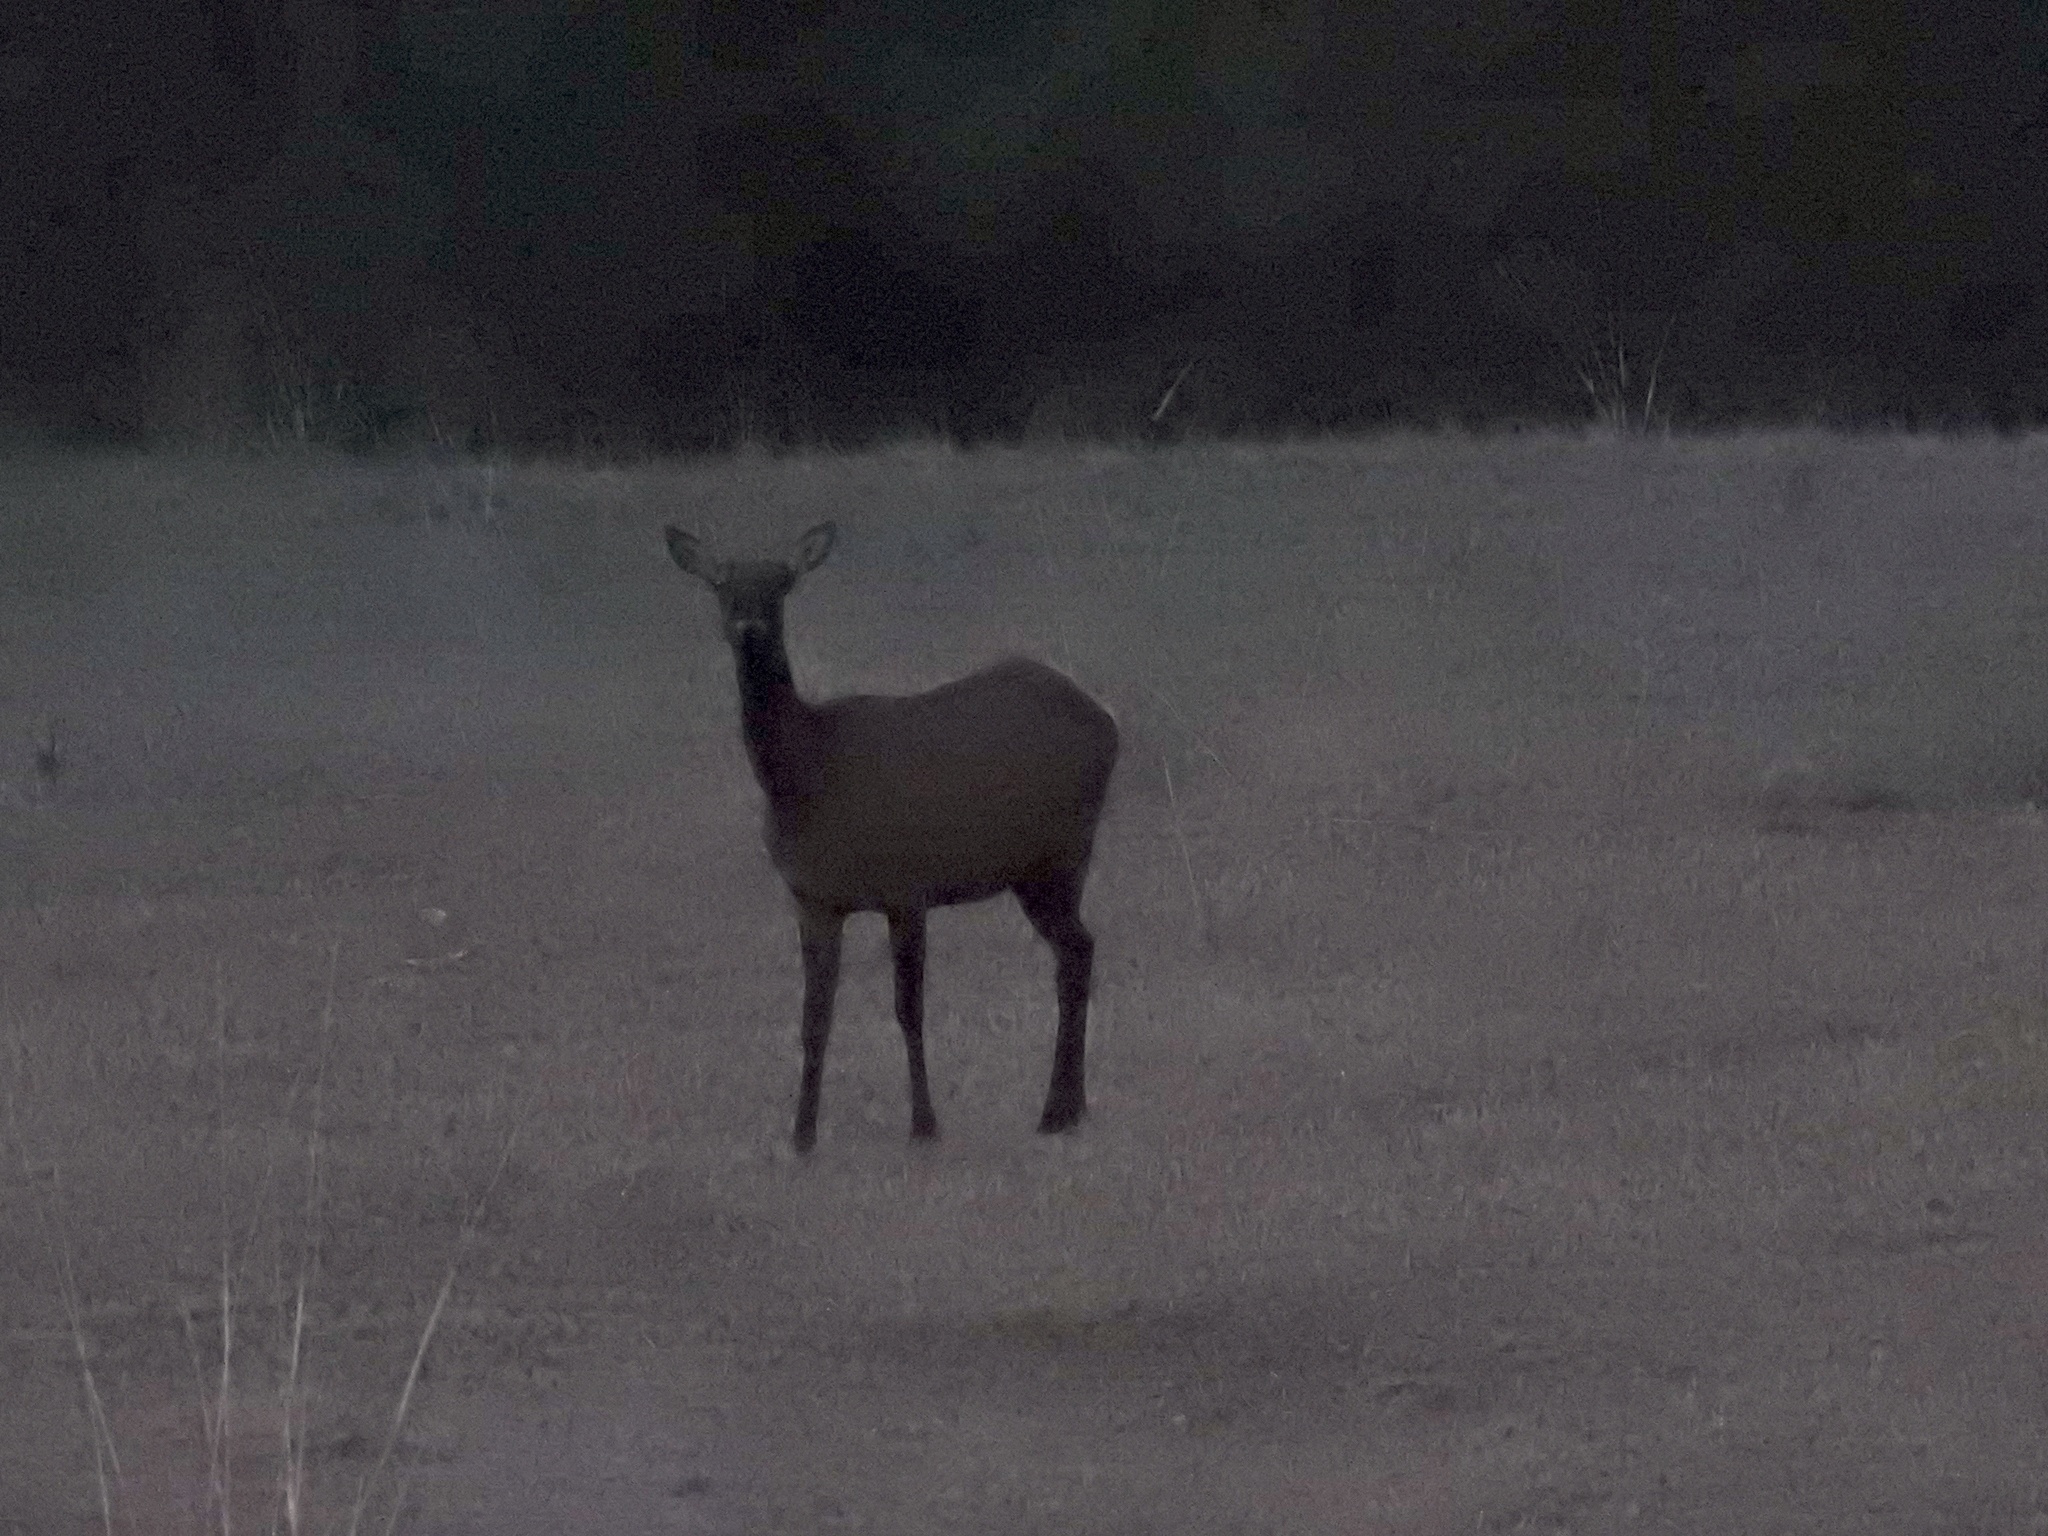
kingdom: Animalia
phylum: Chordata
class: Mammalia
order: Artiodactyla
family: Cervidae
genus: Cervus
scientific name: Cervus elaphus
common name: Red deer
